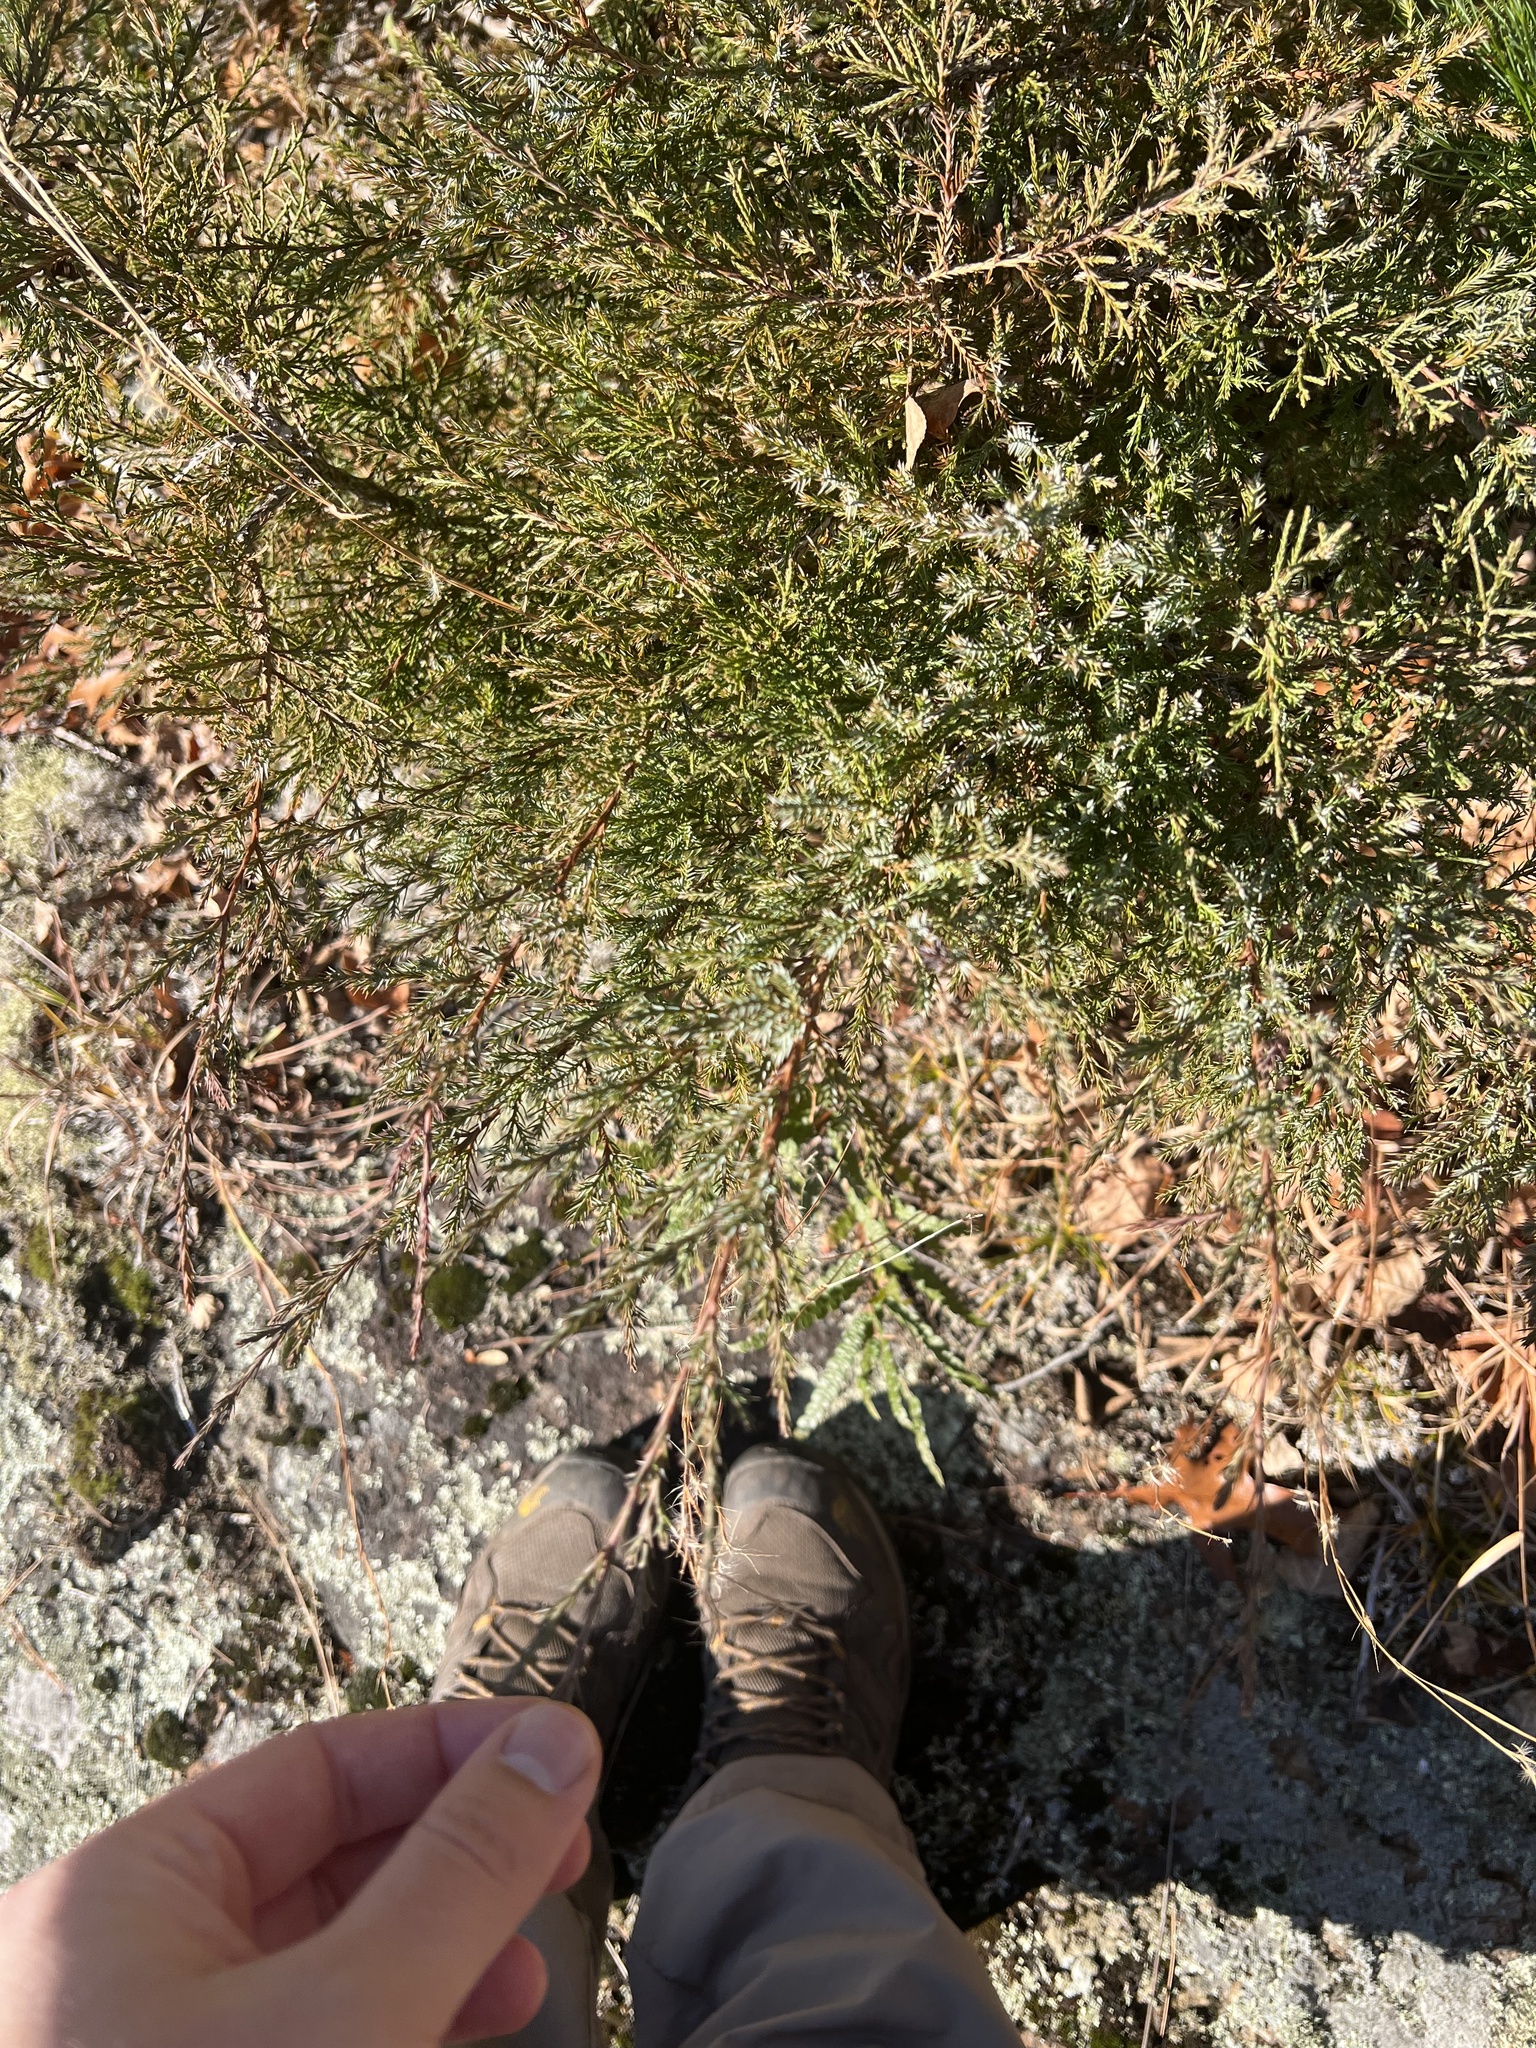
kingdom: Plantae
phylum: Tracheophyta
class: Pinopsida
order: Pinales
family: Cupressaceae
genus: Juniperus
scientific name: Juniperus virginiana
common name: Red juniper
